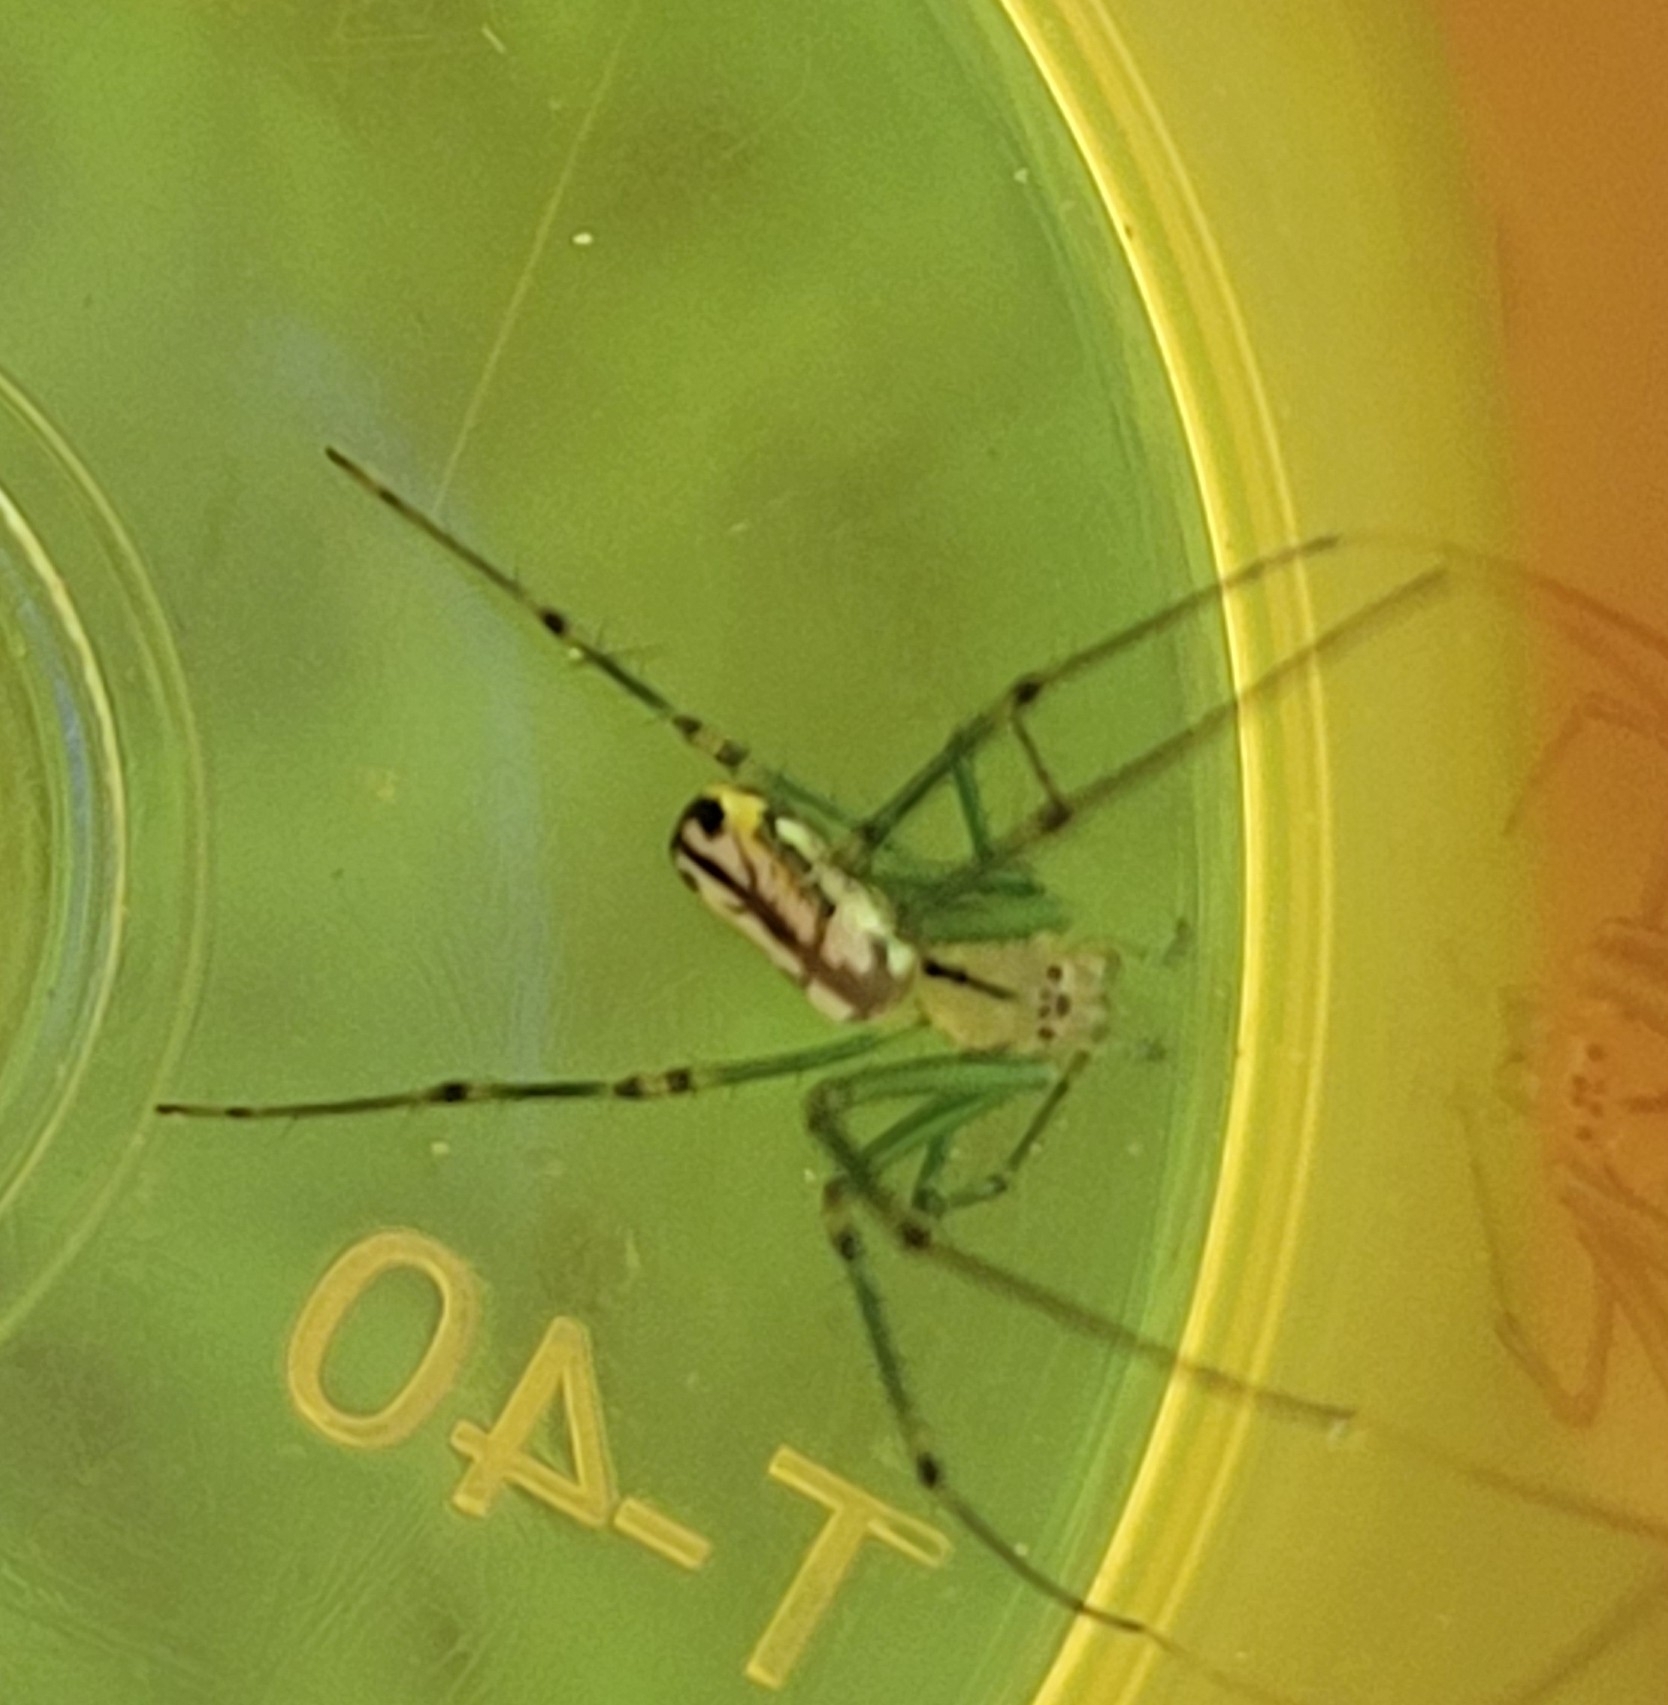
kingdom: Animalia
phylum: Arthropoda
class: Arachnida
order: Araneae
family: Tetragnathidae
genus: Leucauge
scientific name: Leucauge venusta
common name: Longjawed orb weavers
